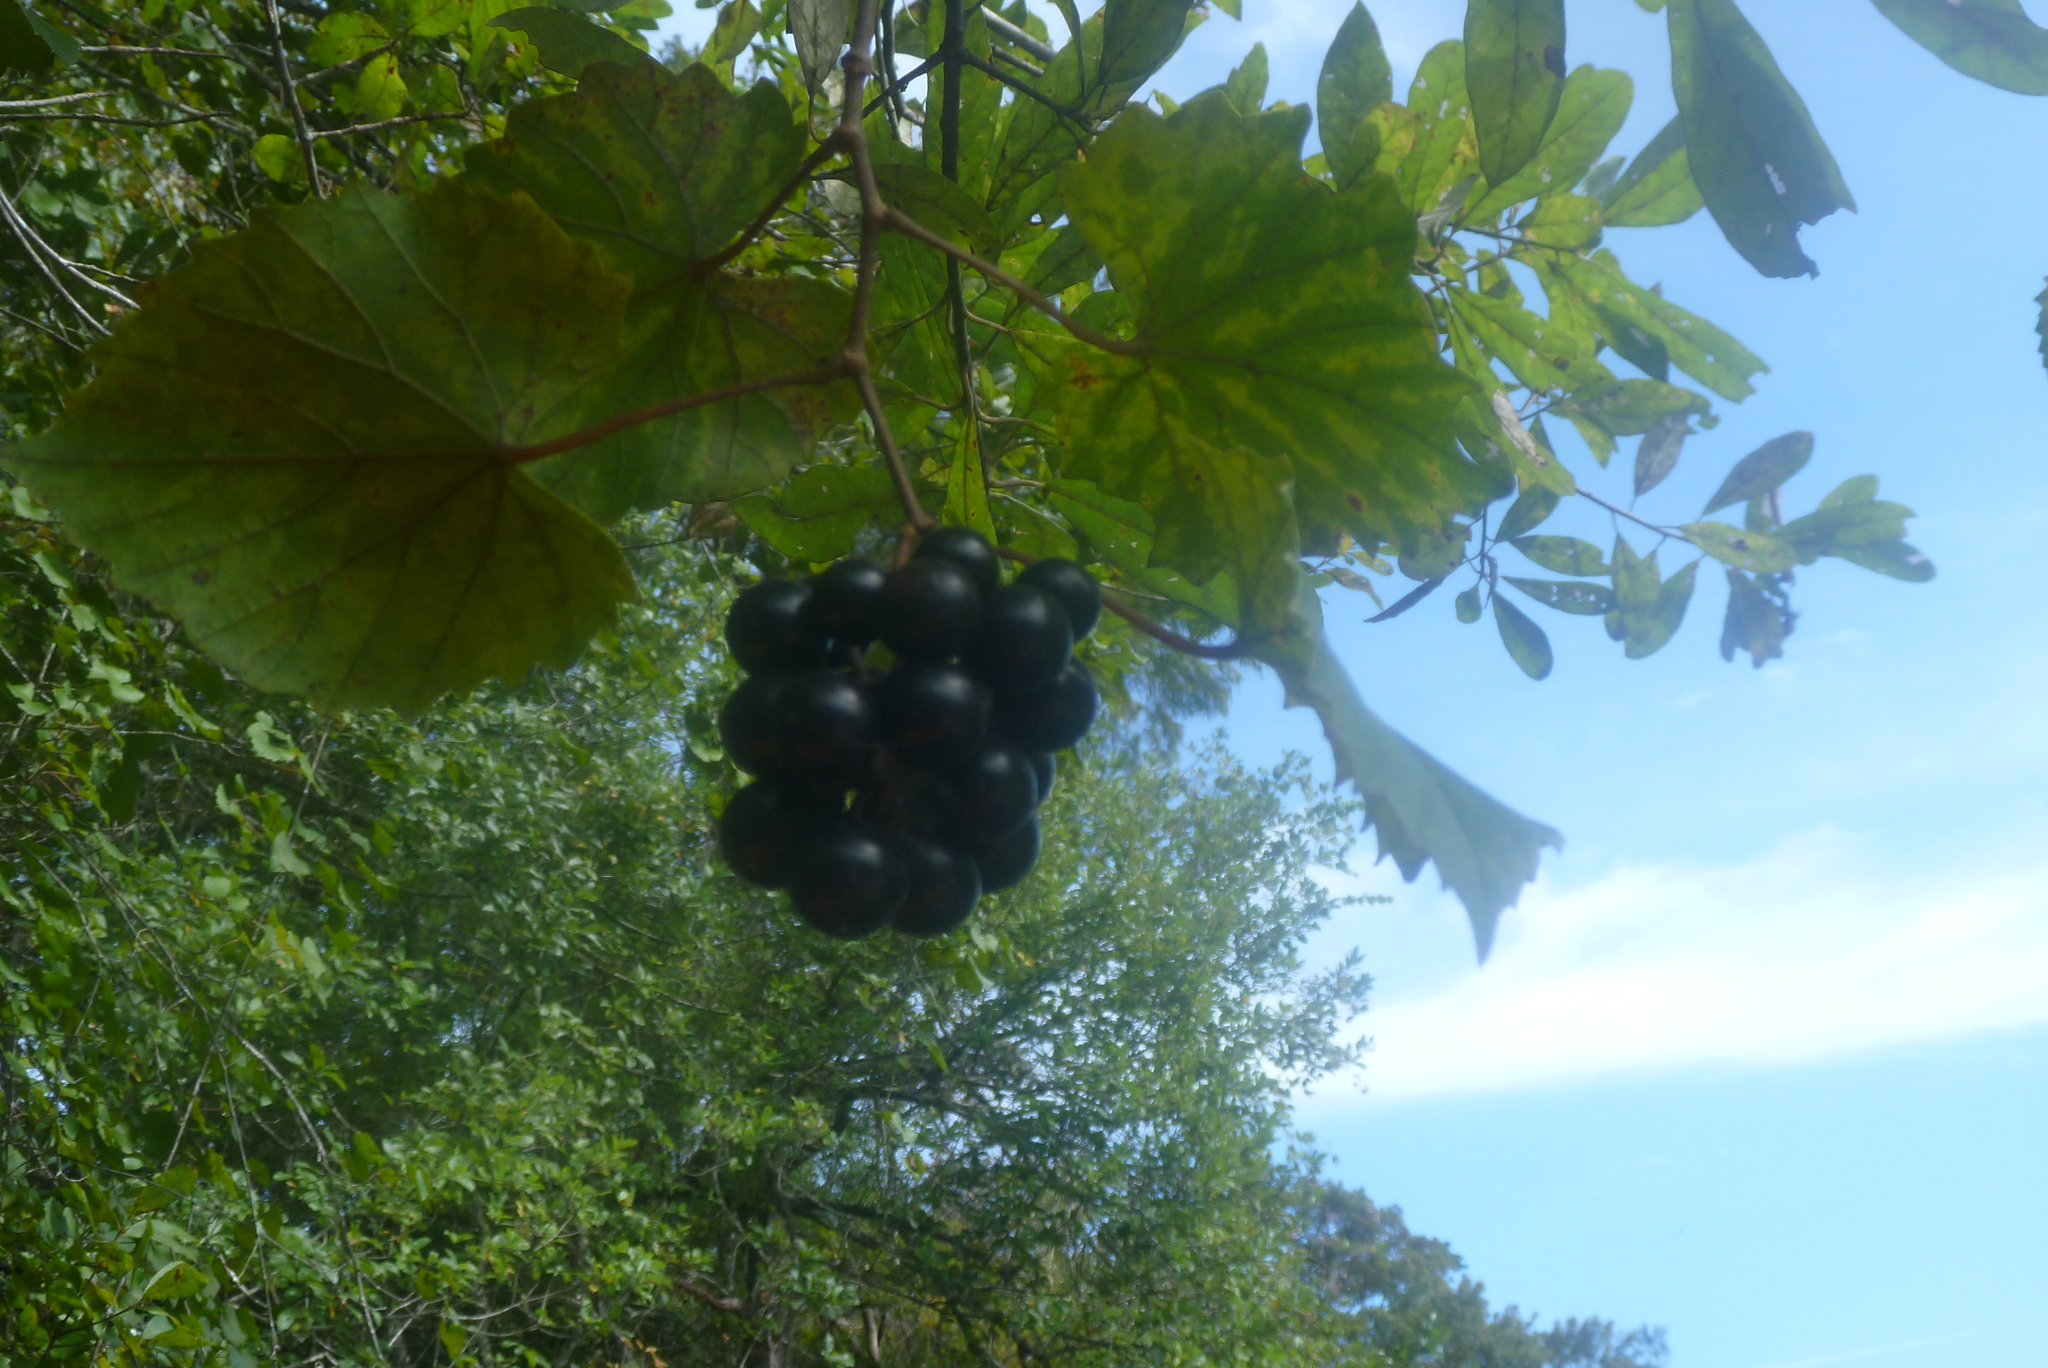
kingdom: Plantae
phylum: Tracheophyta
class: Magnoliopsida
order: Vitales
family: Vitaceae
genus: Vitis
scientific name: Vitis rotundifolia
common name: Muscadine grape
